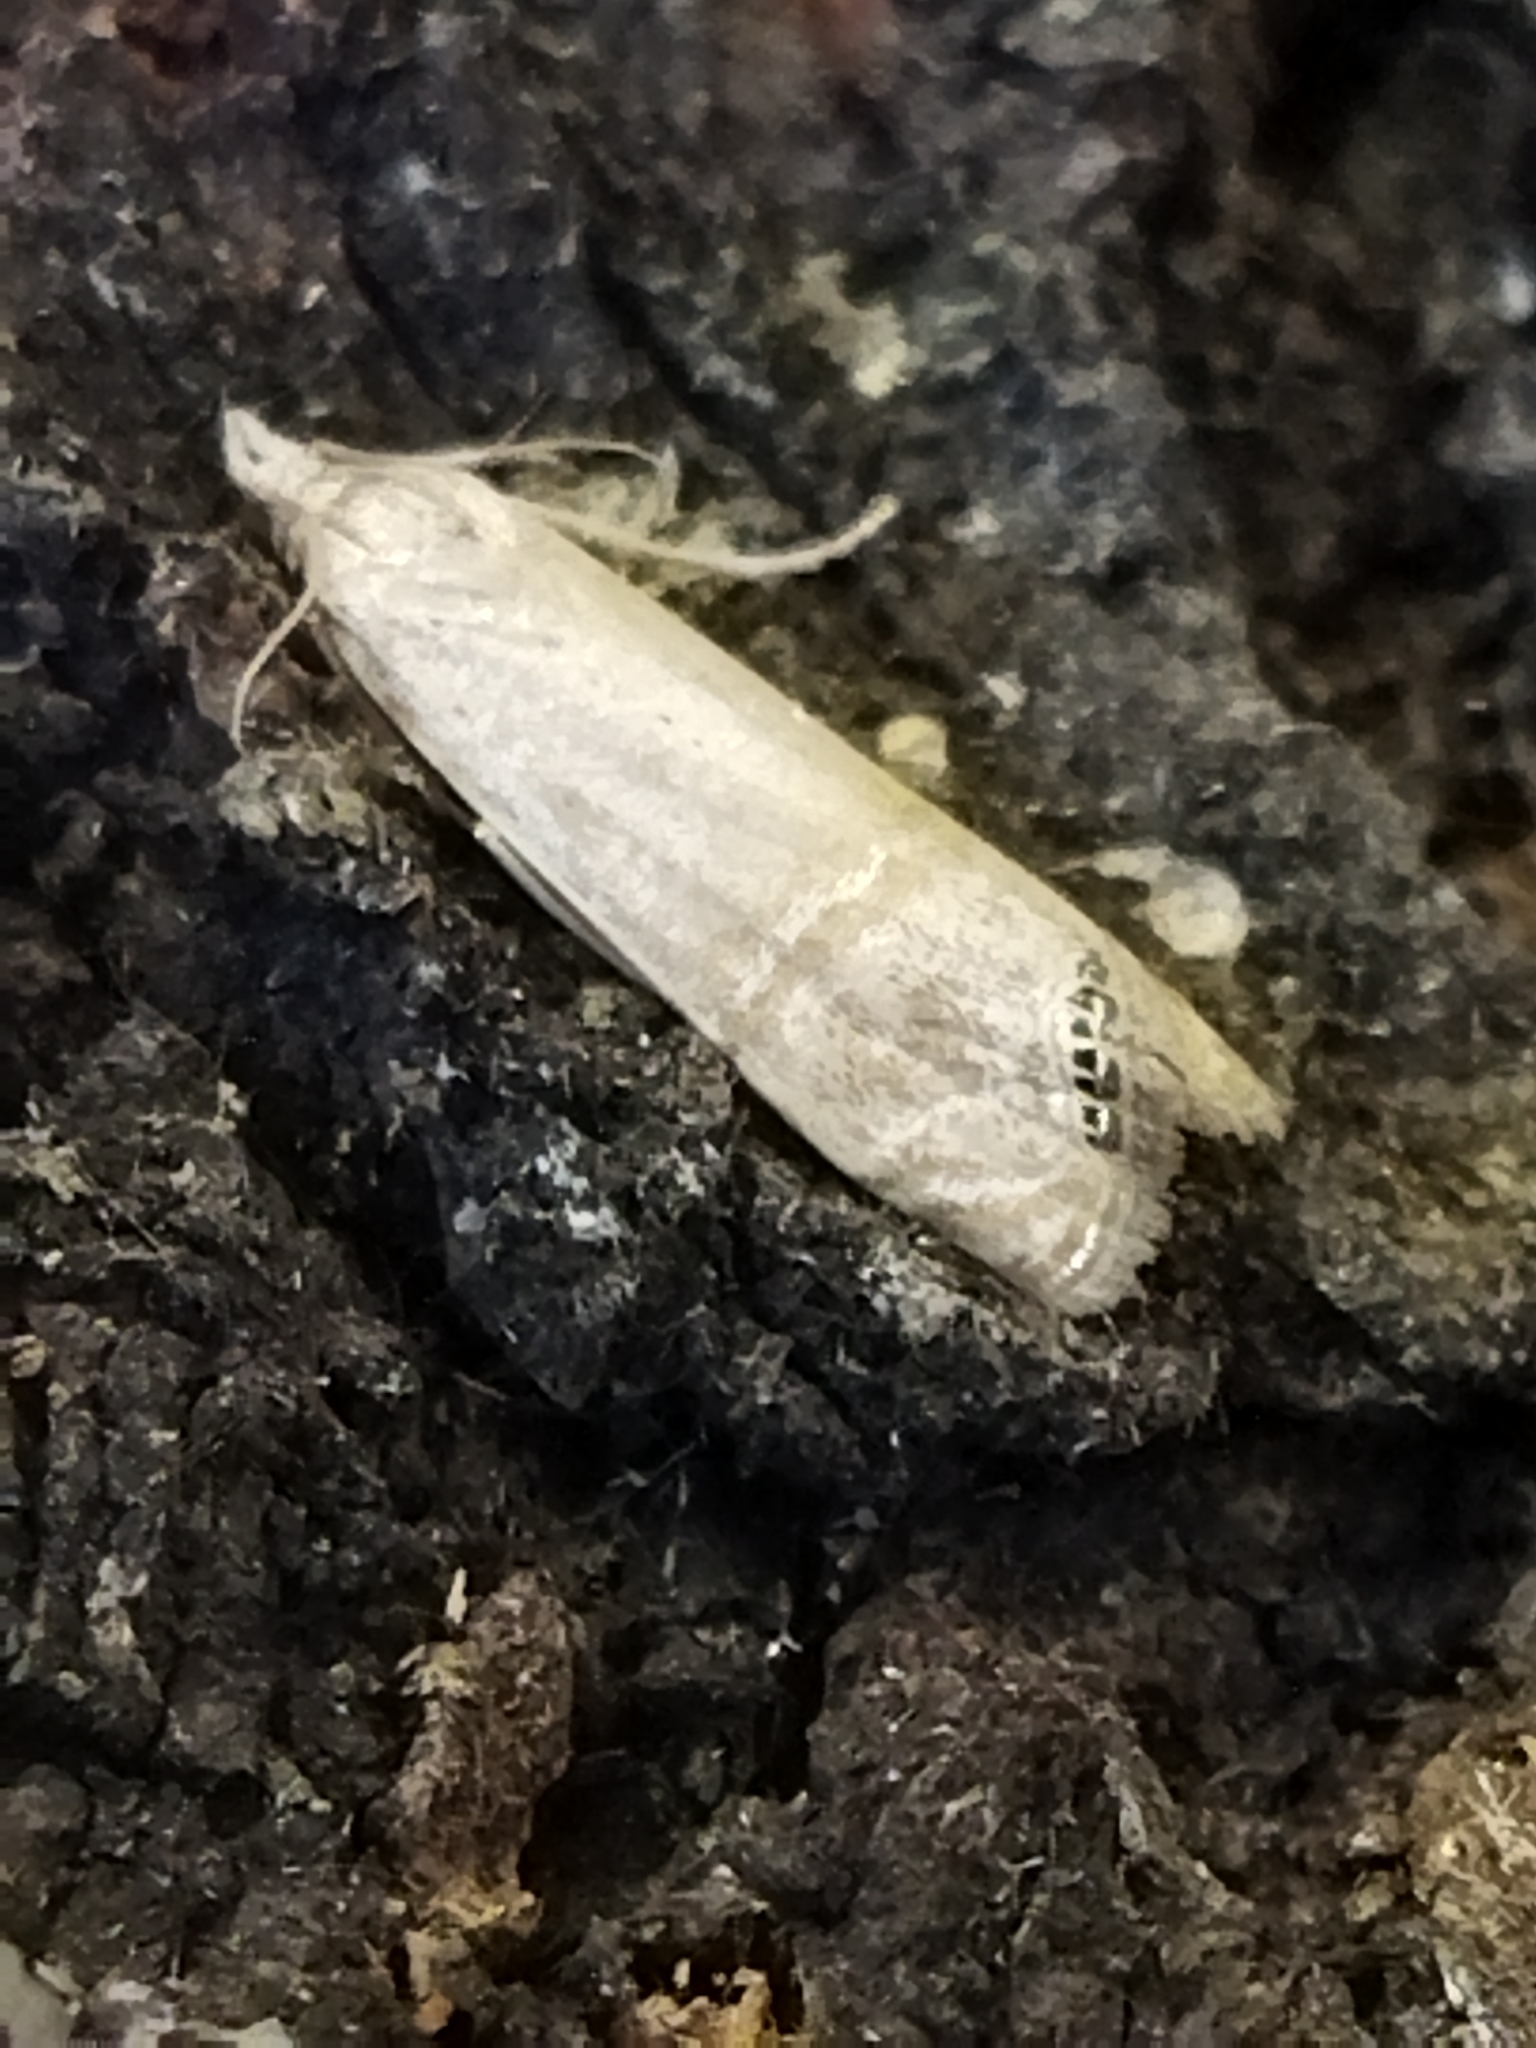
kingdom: Animalia
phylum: Arthropoda
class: Insecta
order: Lepidoptera
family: Crambidae
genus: Euchromius
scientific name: Euchromius ocellea
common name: Necklace veneer moth
